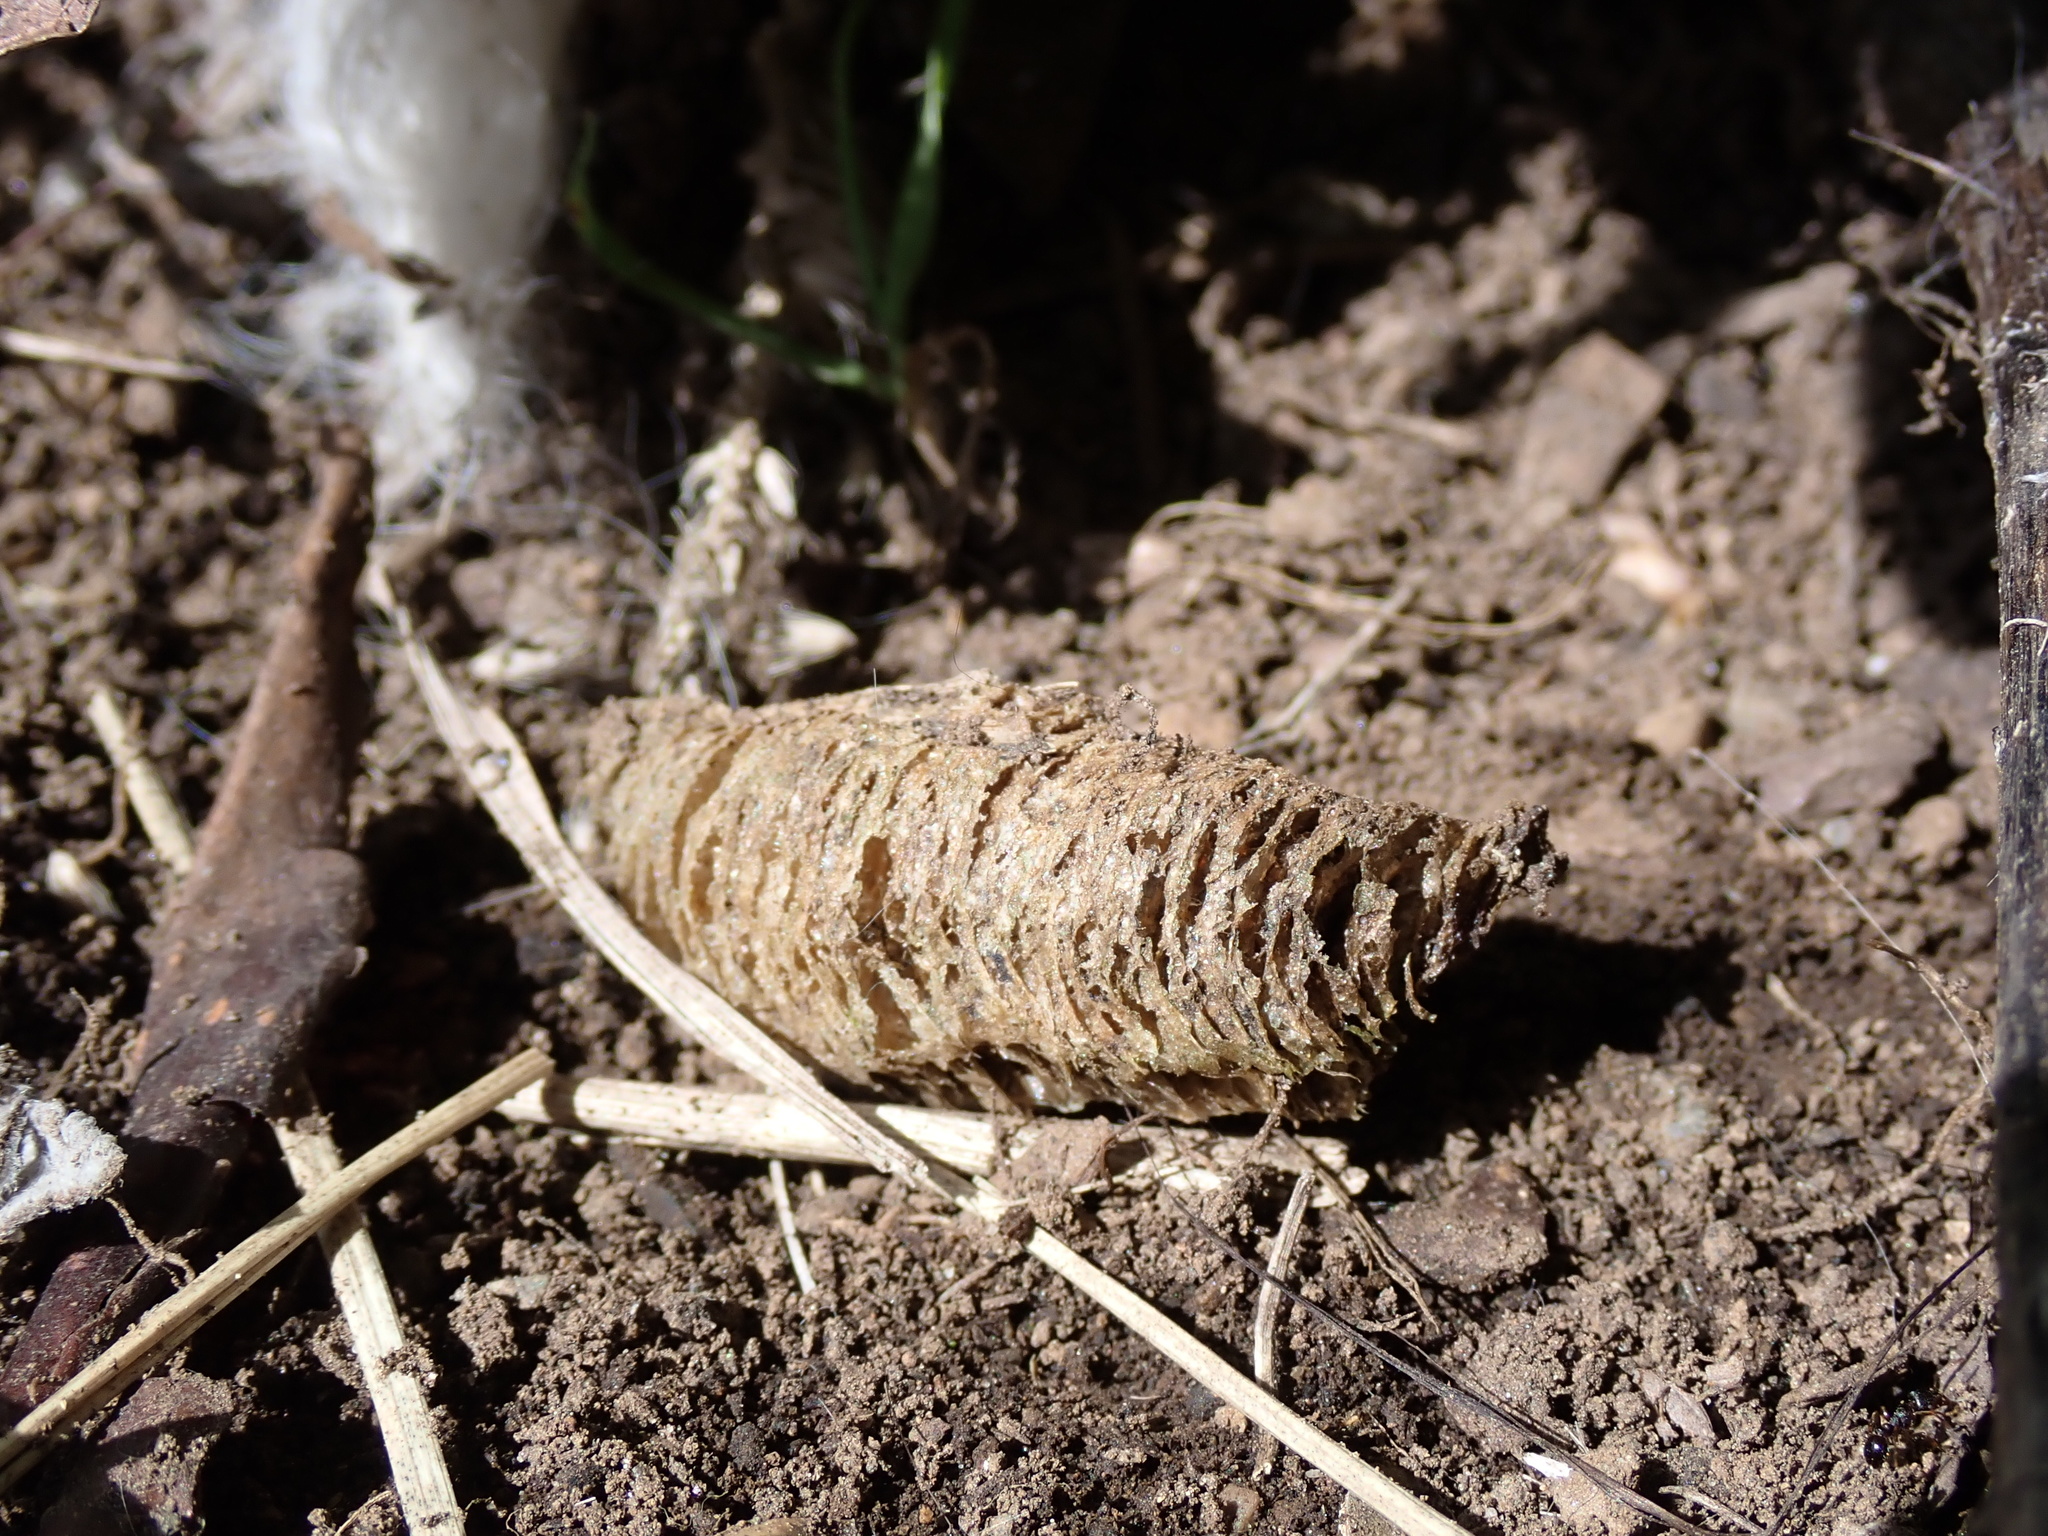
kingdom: Animalia
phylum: Arthropoda
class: Insecta
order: Mantodea
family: Mantidae
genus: Mantis
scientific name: Mantis religiosa
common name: Praying mantis
